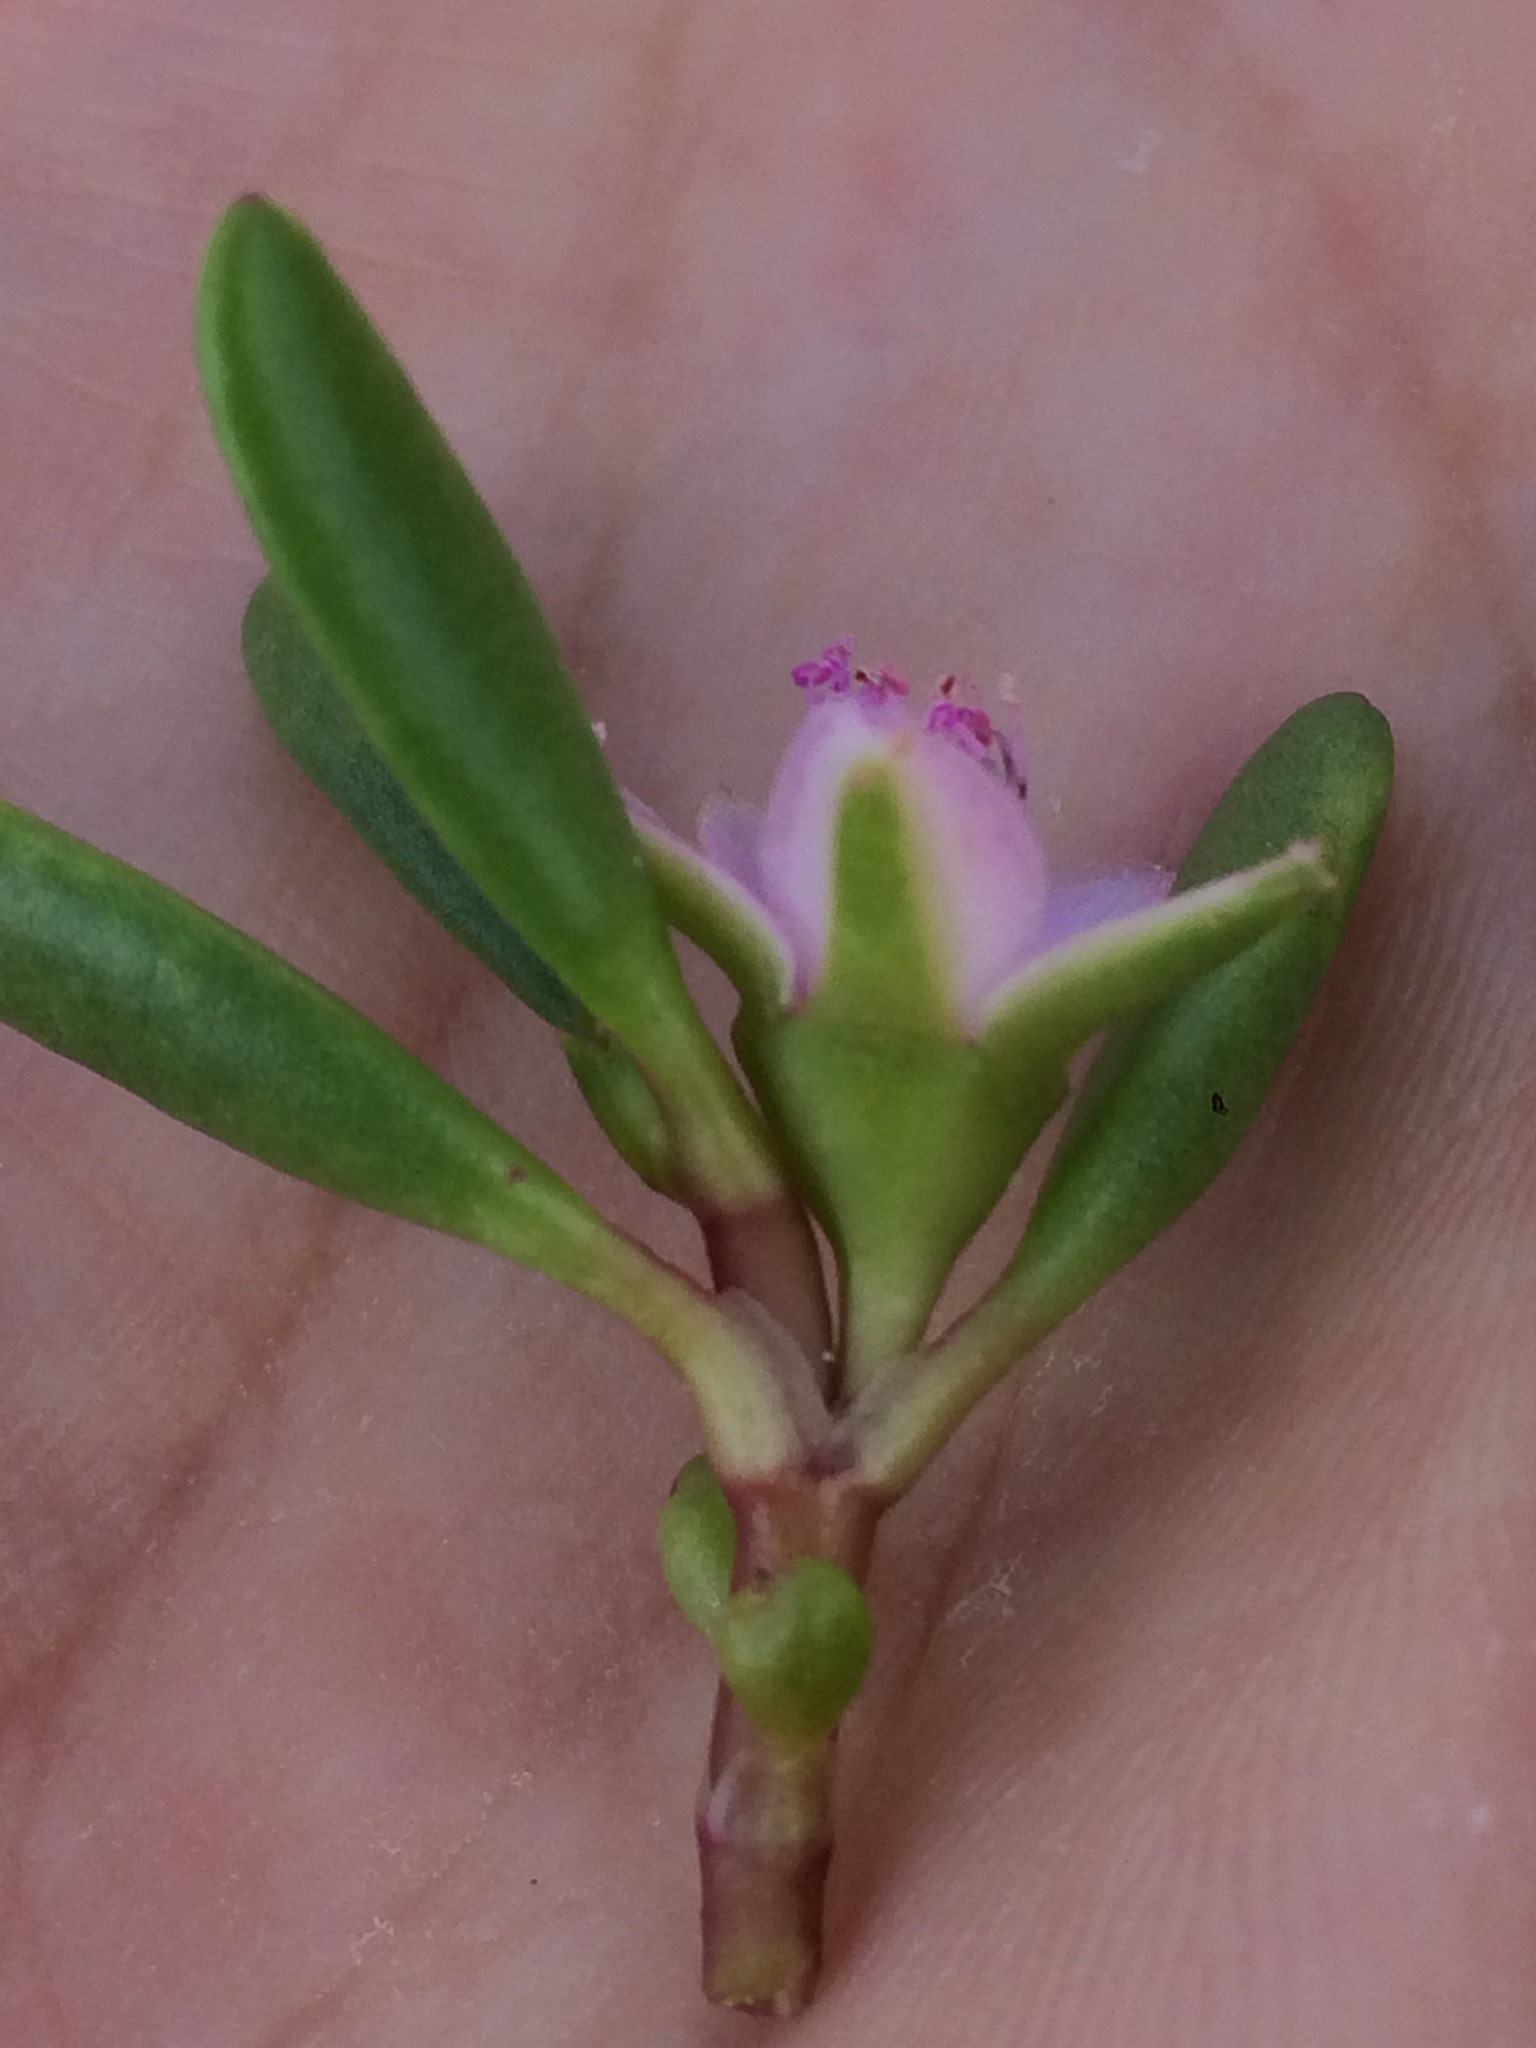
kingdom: Plantae
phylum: Tracheophyta
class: Magnoliopsida
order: Caryophyllales
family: Aizoaceae
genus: Sesuvium
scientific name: Sesuvium portulacastrum
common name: Sea-purslane
